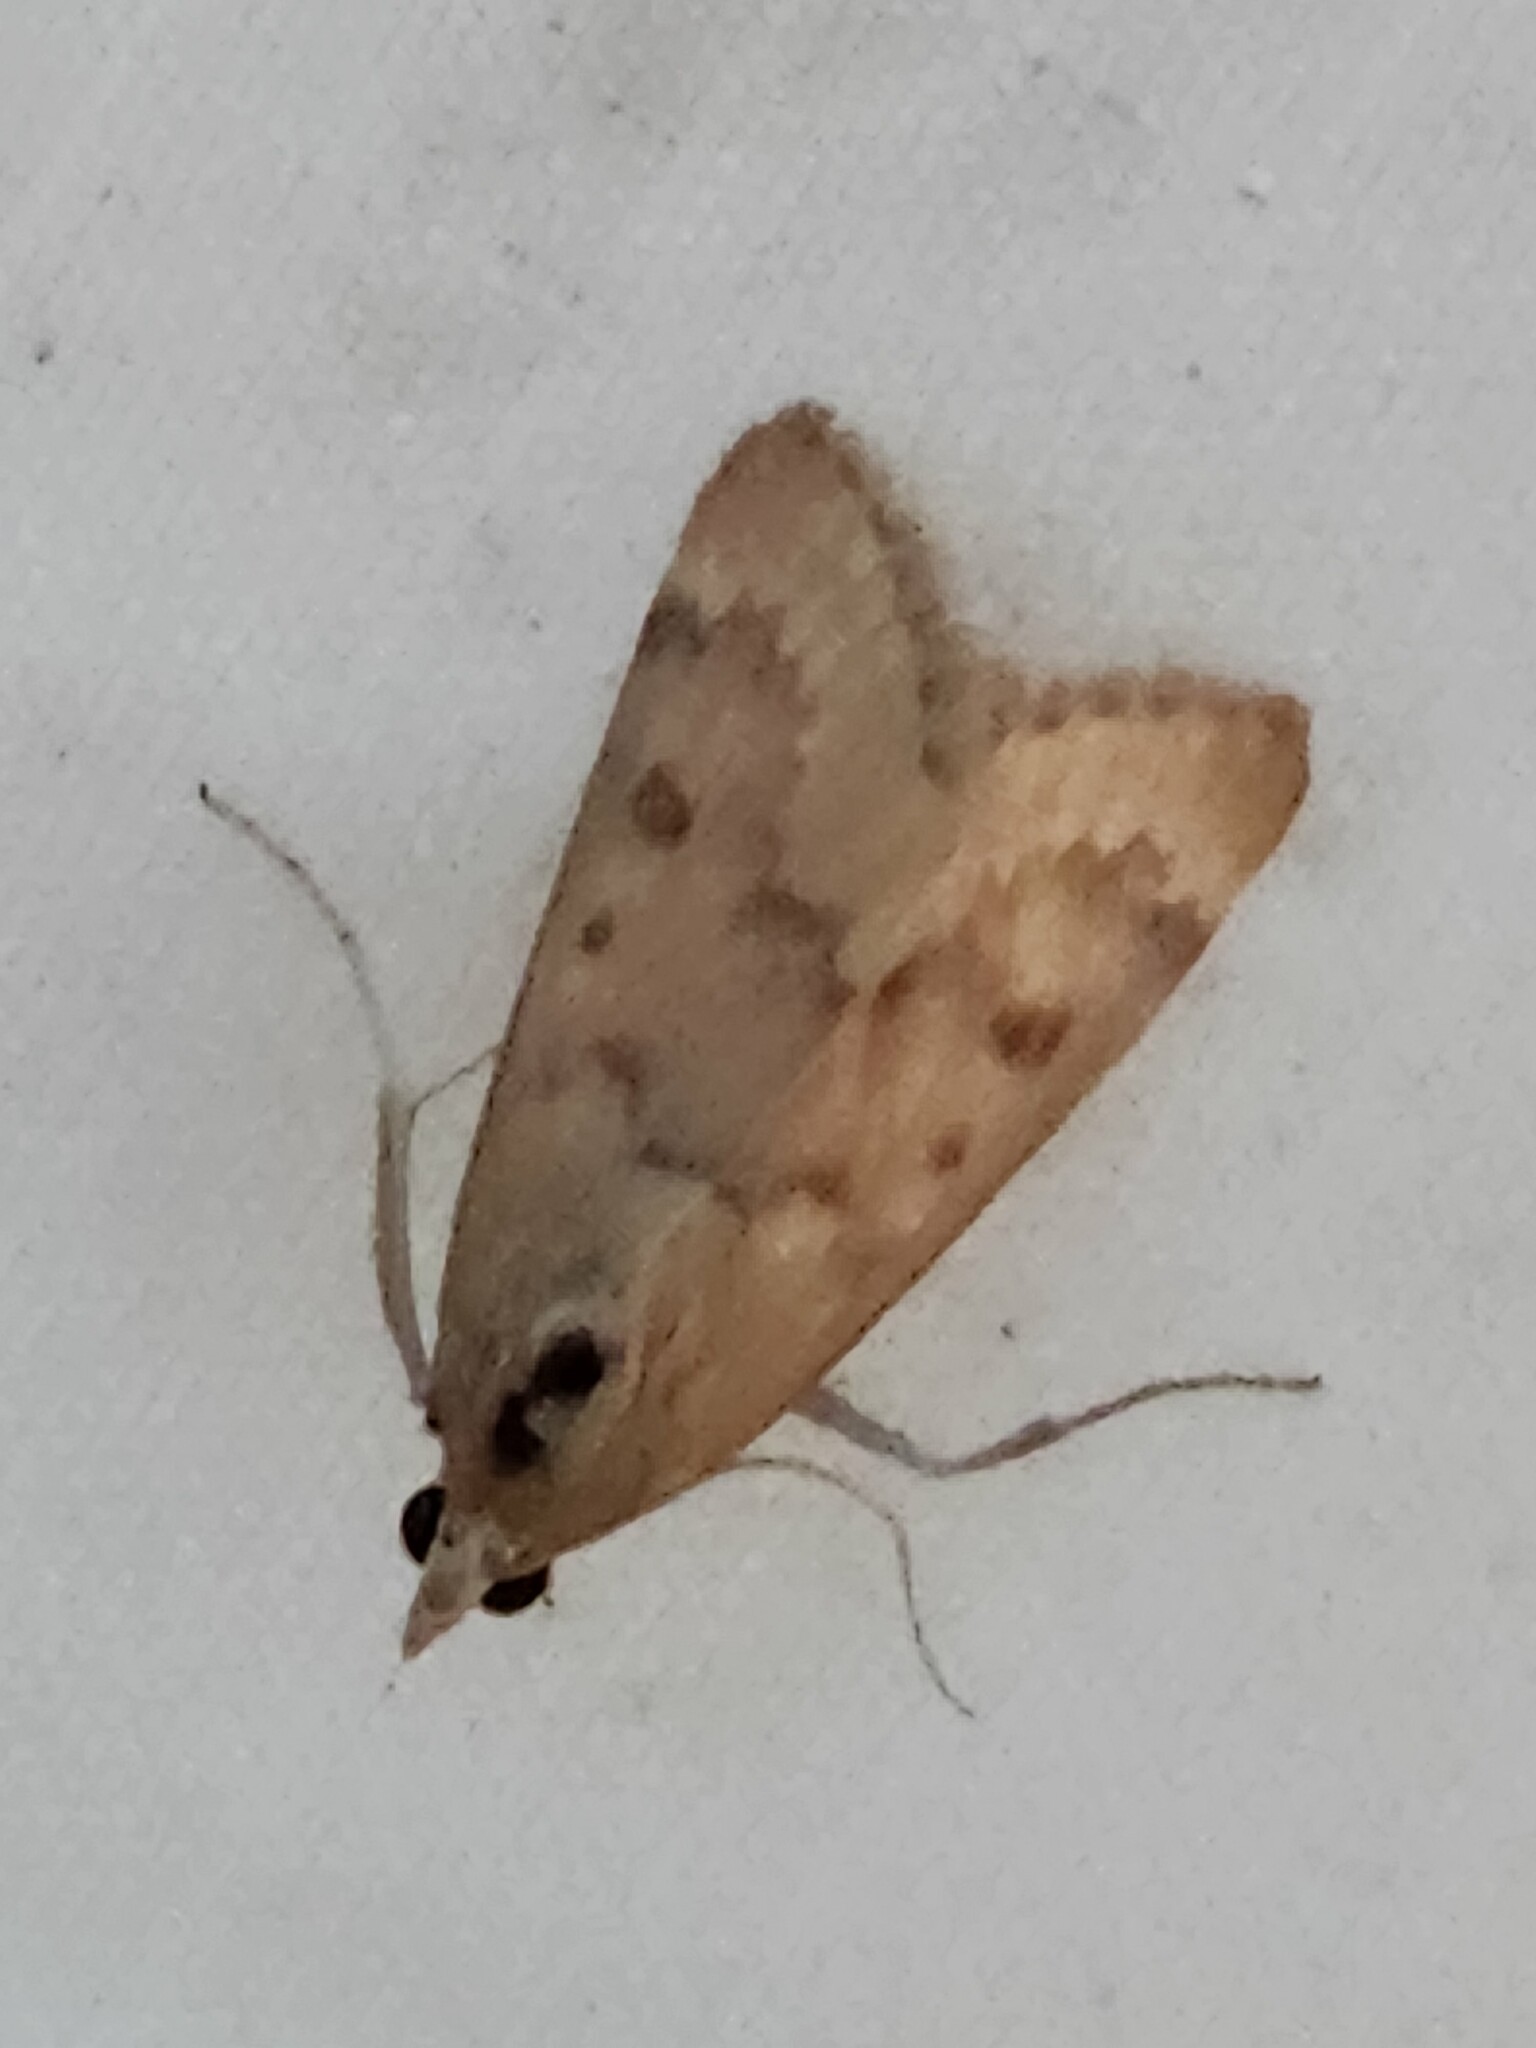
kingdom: Animalia
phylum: Arthropoda
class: Insecta
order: Lepidoptera
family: Crambidae
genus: Achyra
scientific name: Achyra rantalis
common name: Garden webworm
